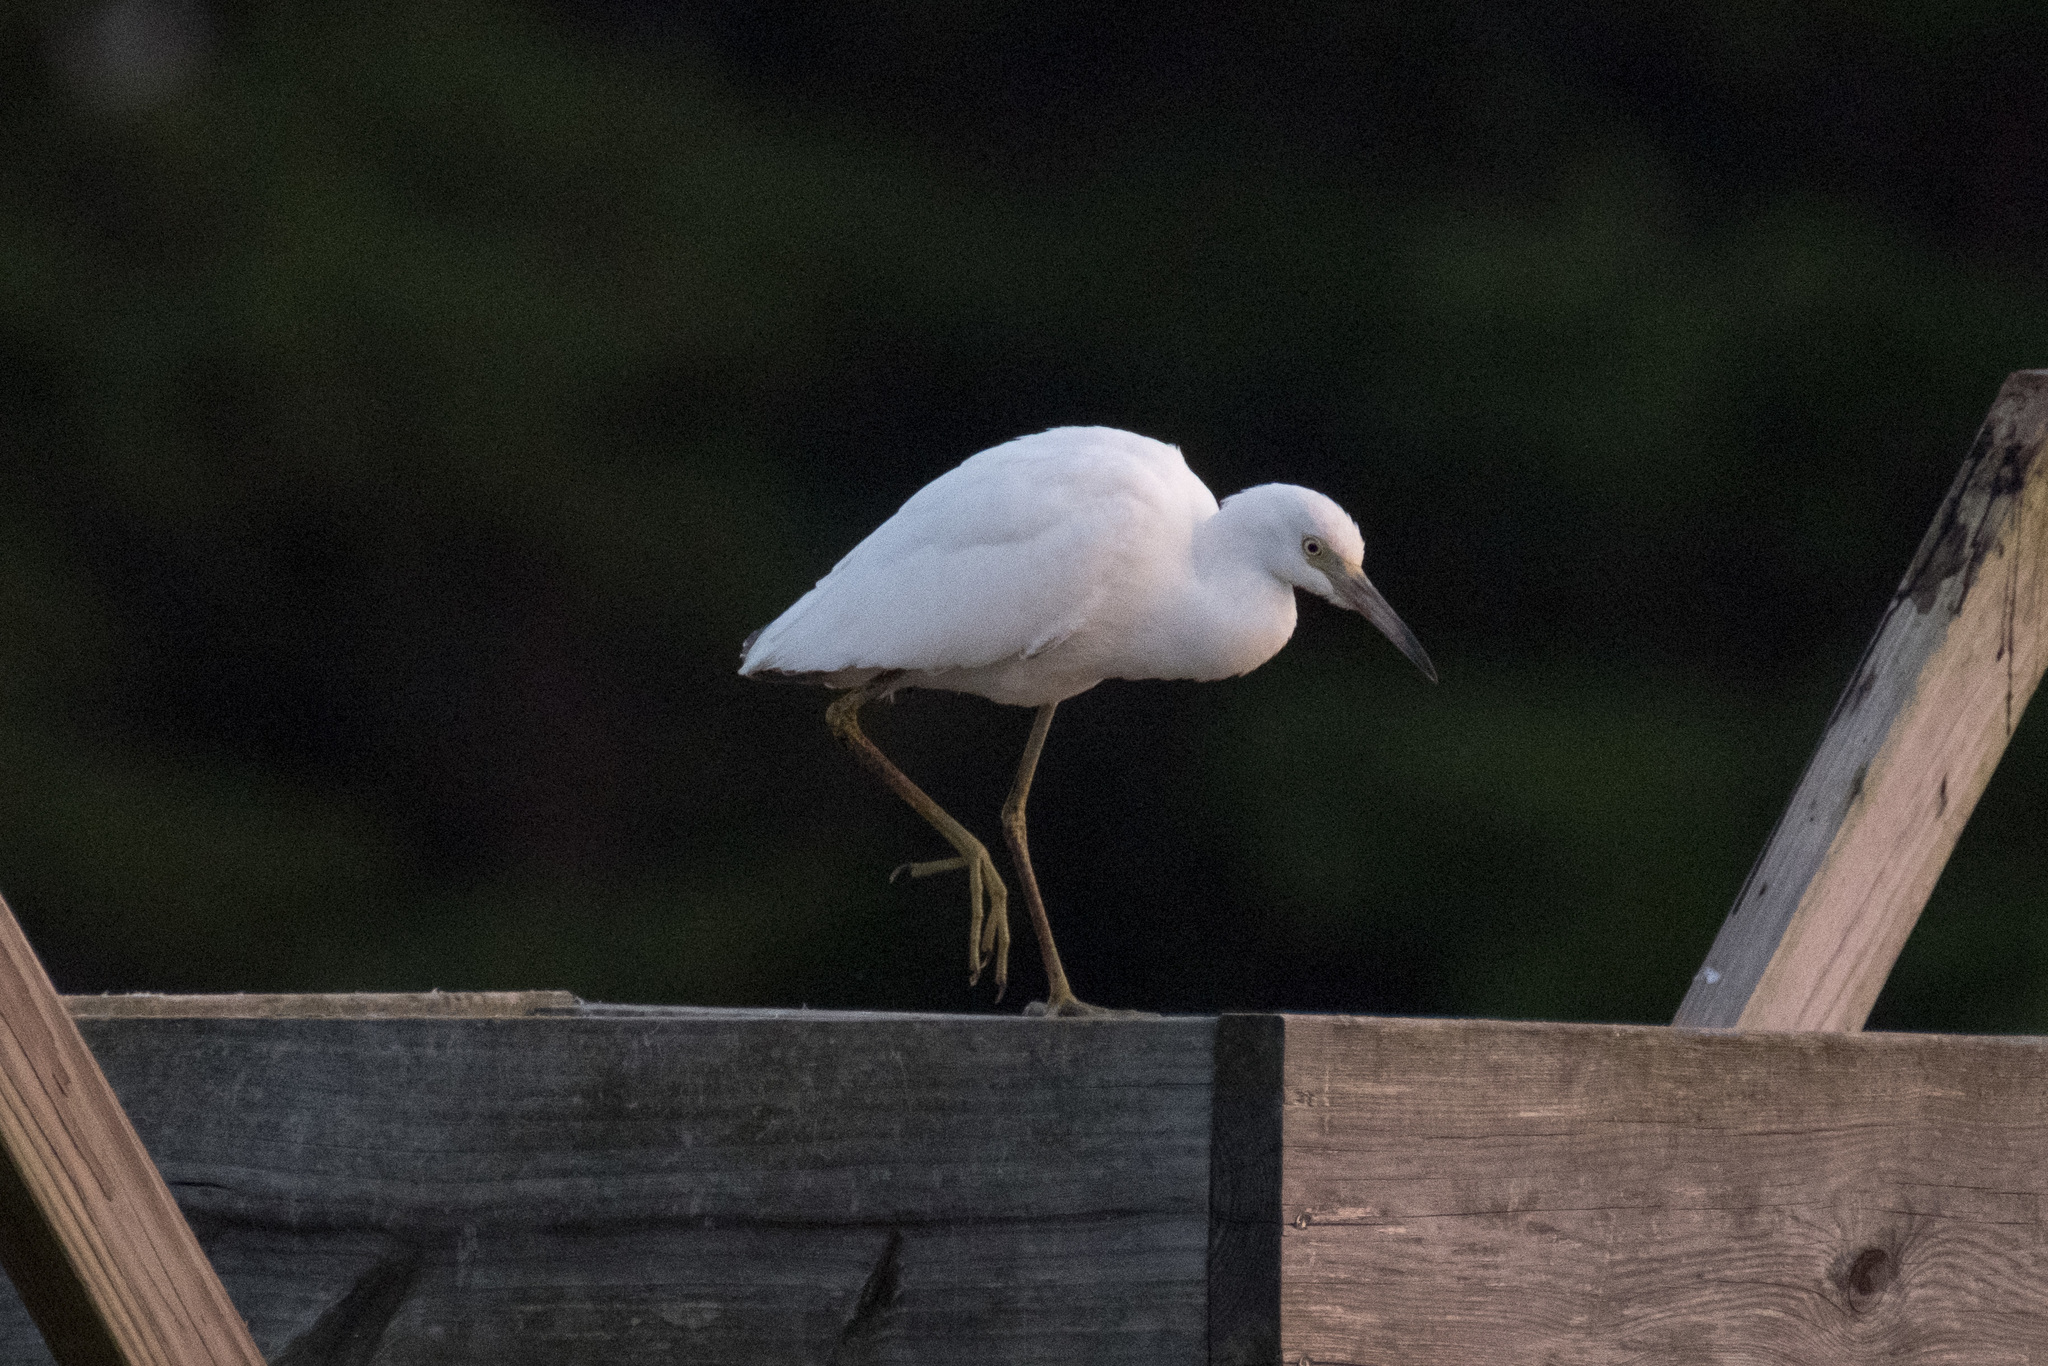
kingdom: Animalia
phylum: Chordata
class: Aves
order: Pelecaniformes
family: Ardeidae
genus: Egretta
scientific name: Egretta caerulea
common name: Little blue heron
